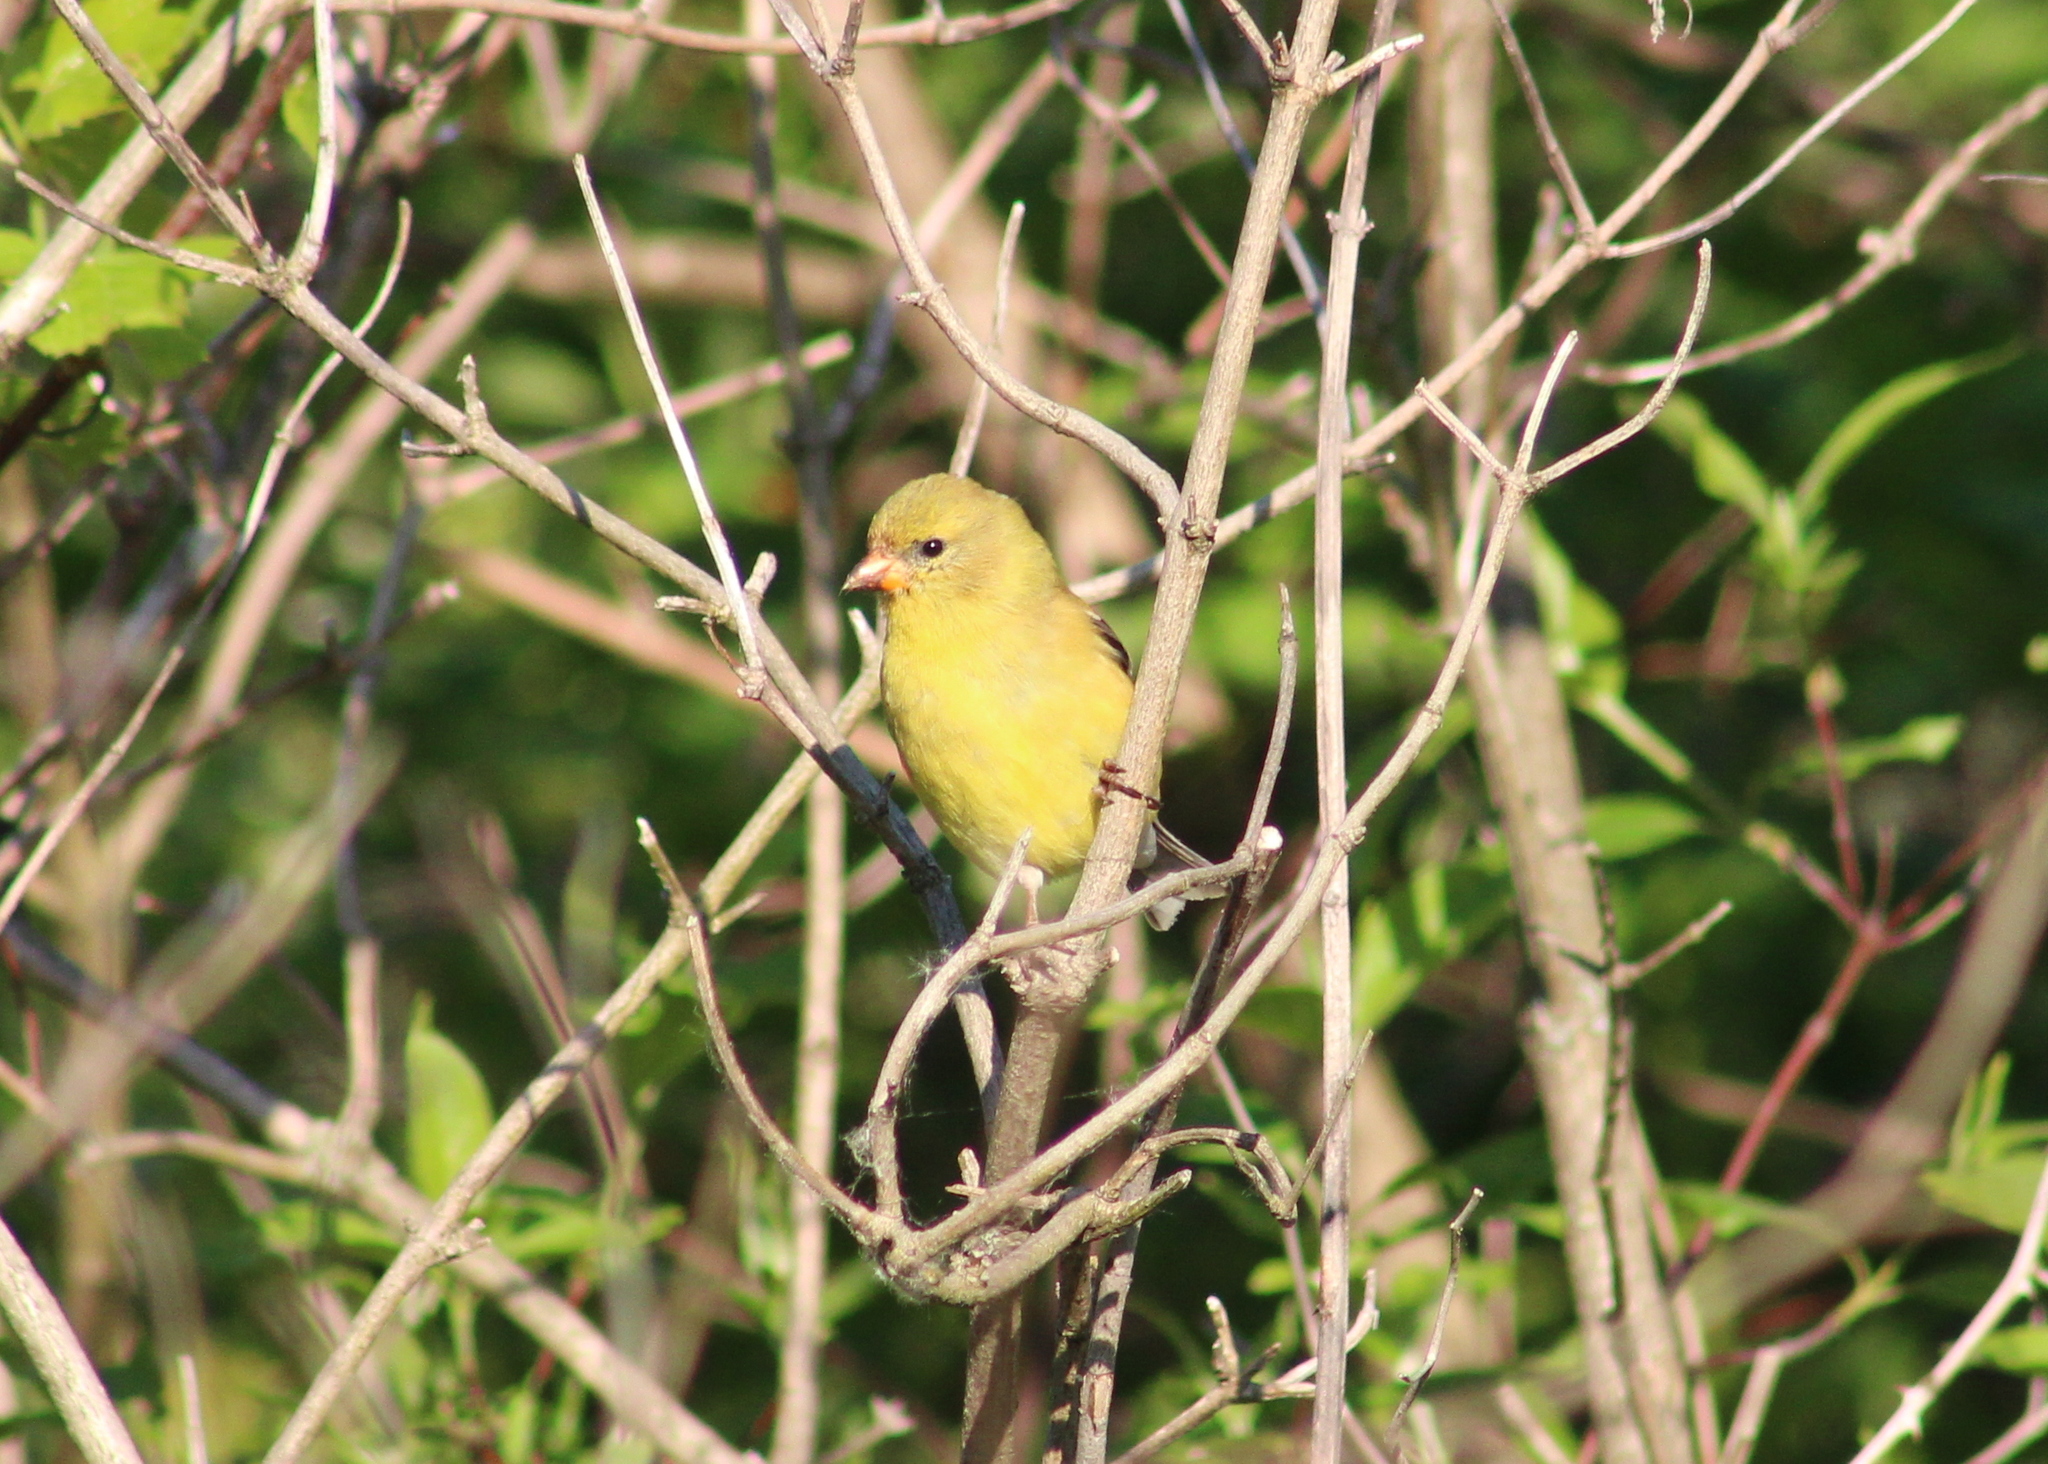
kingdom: Animalia
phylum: Chordata
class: Aves
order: Passeriformes
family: Fringillidae
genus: Spinus
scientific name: Spinus tristis
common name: American goldfinch
